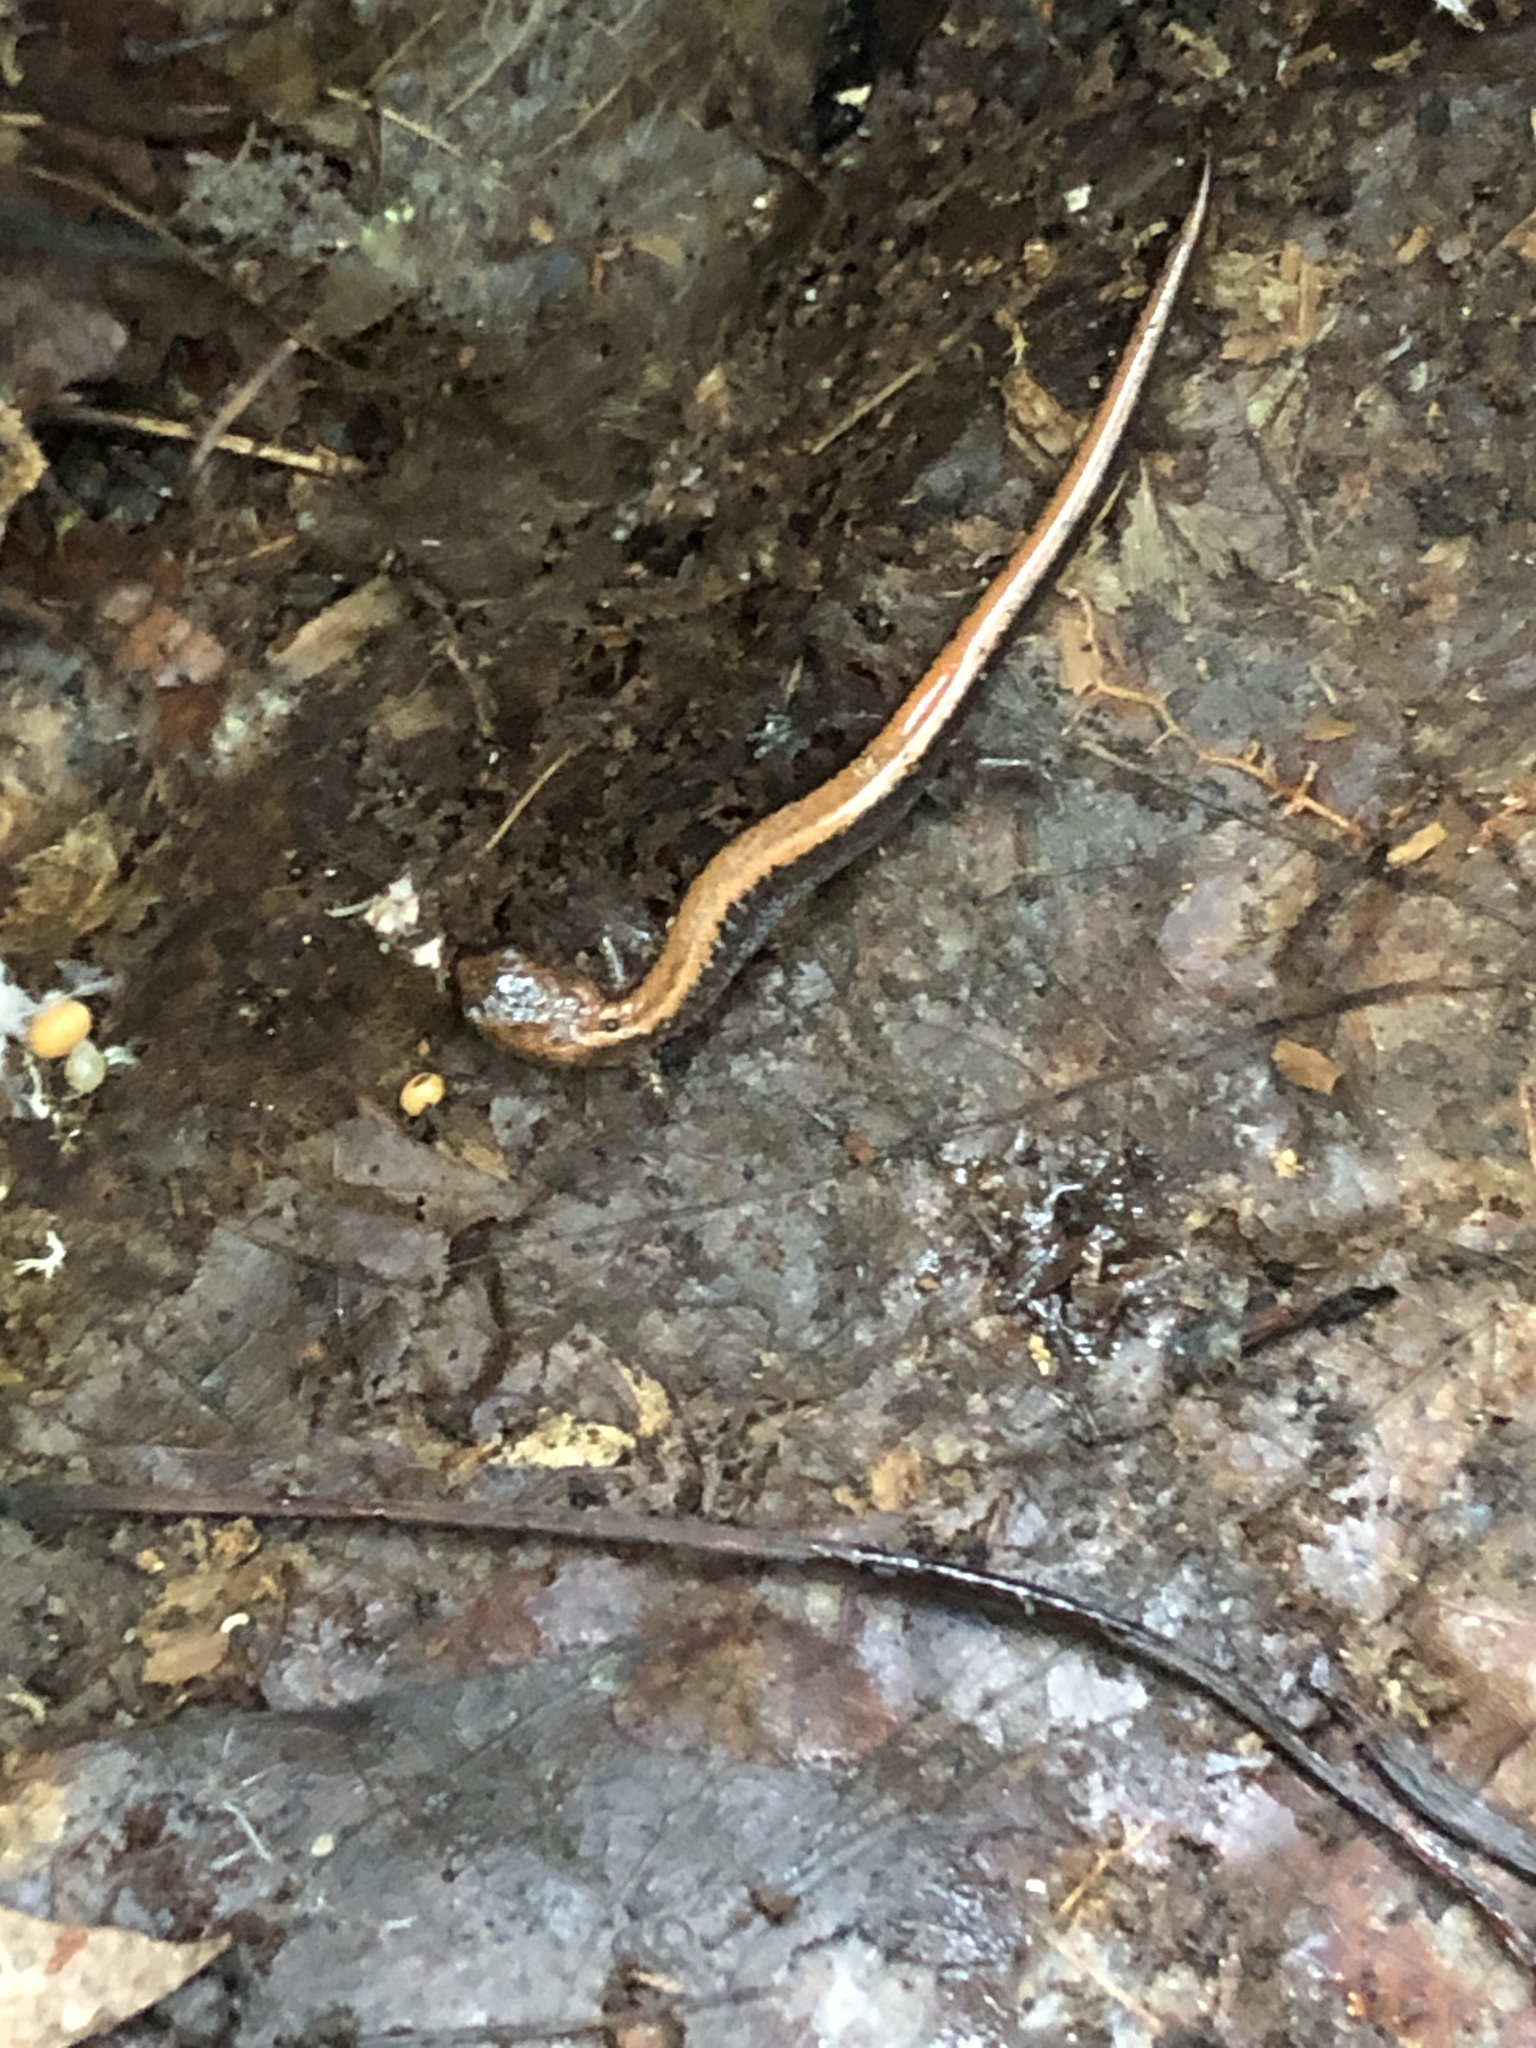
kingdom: Animalia
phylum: Chordata
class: Amphibia
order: Caudata
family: Plethodontidae
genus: Plethodon
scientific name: Plethodon cinereus
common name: Redback salamander
